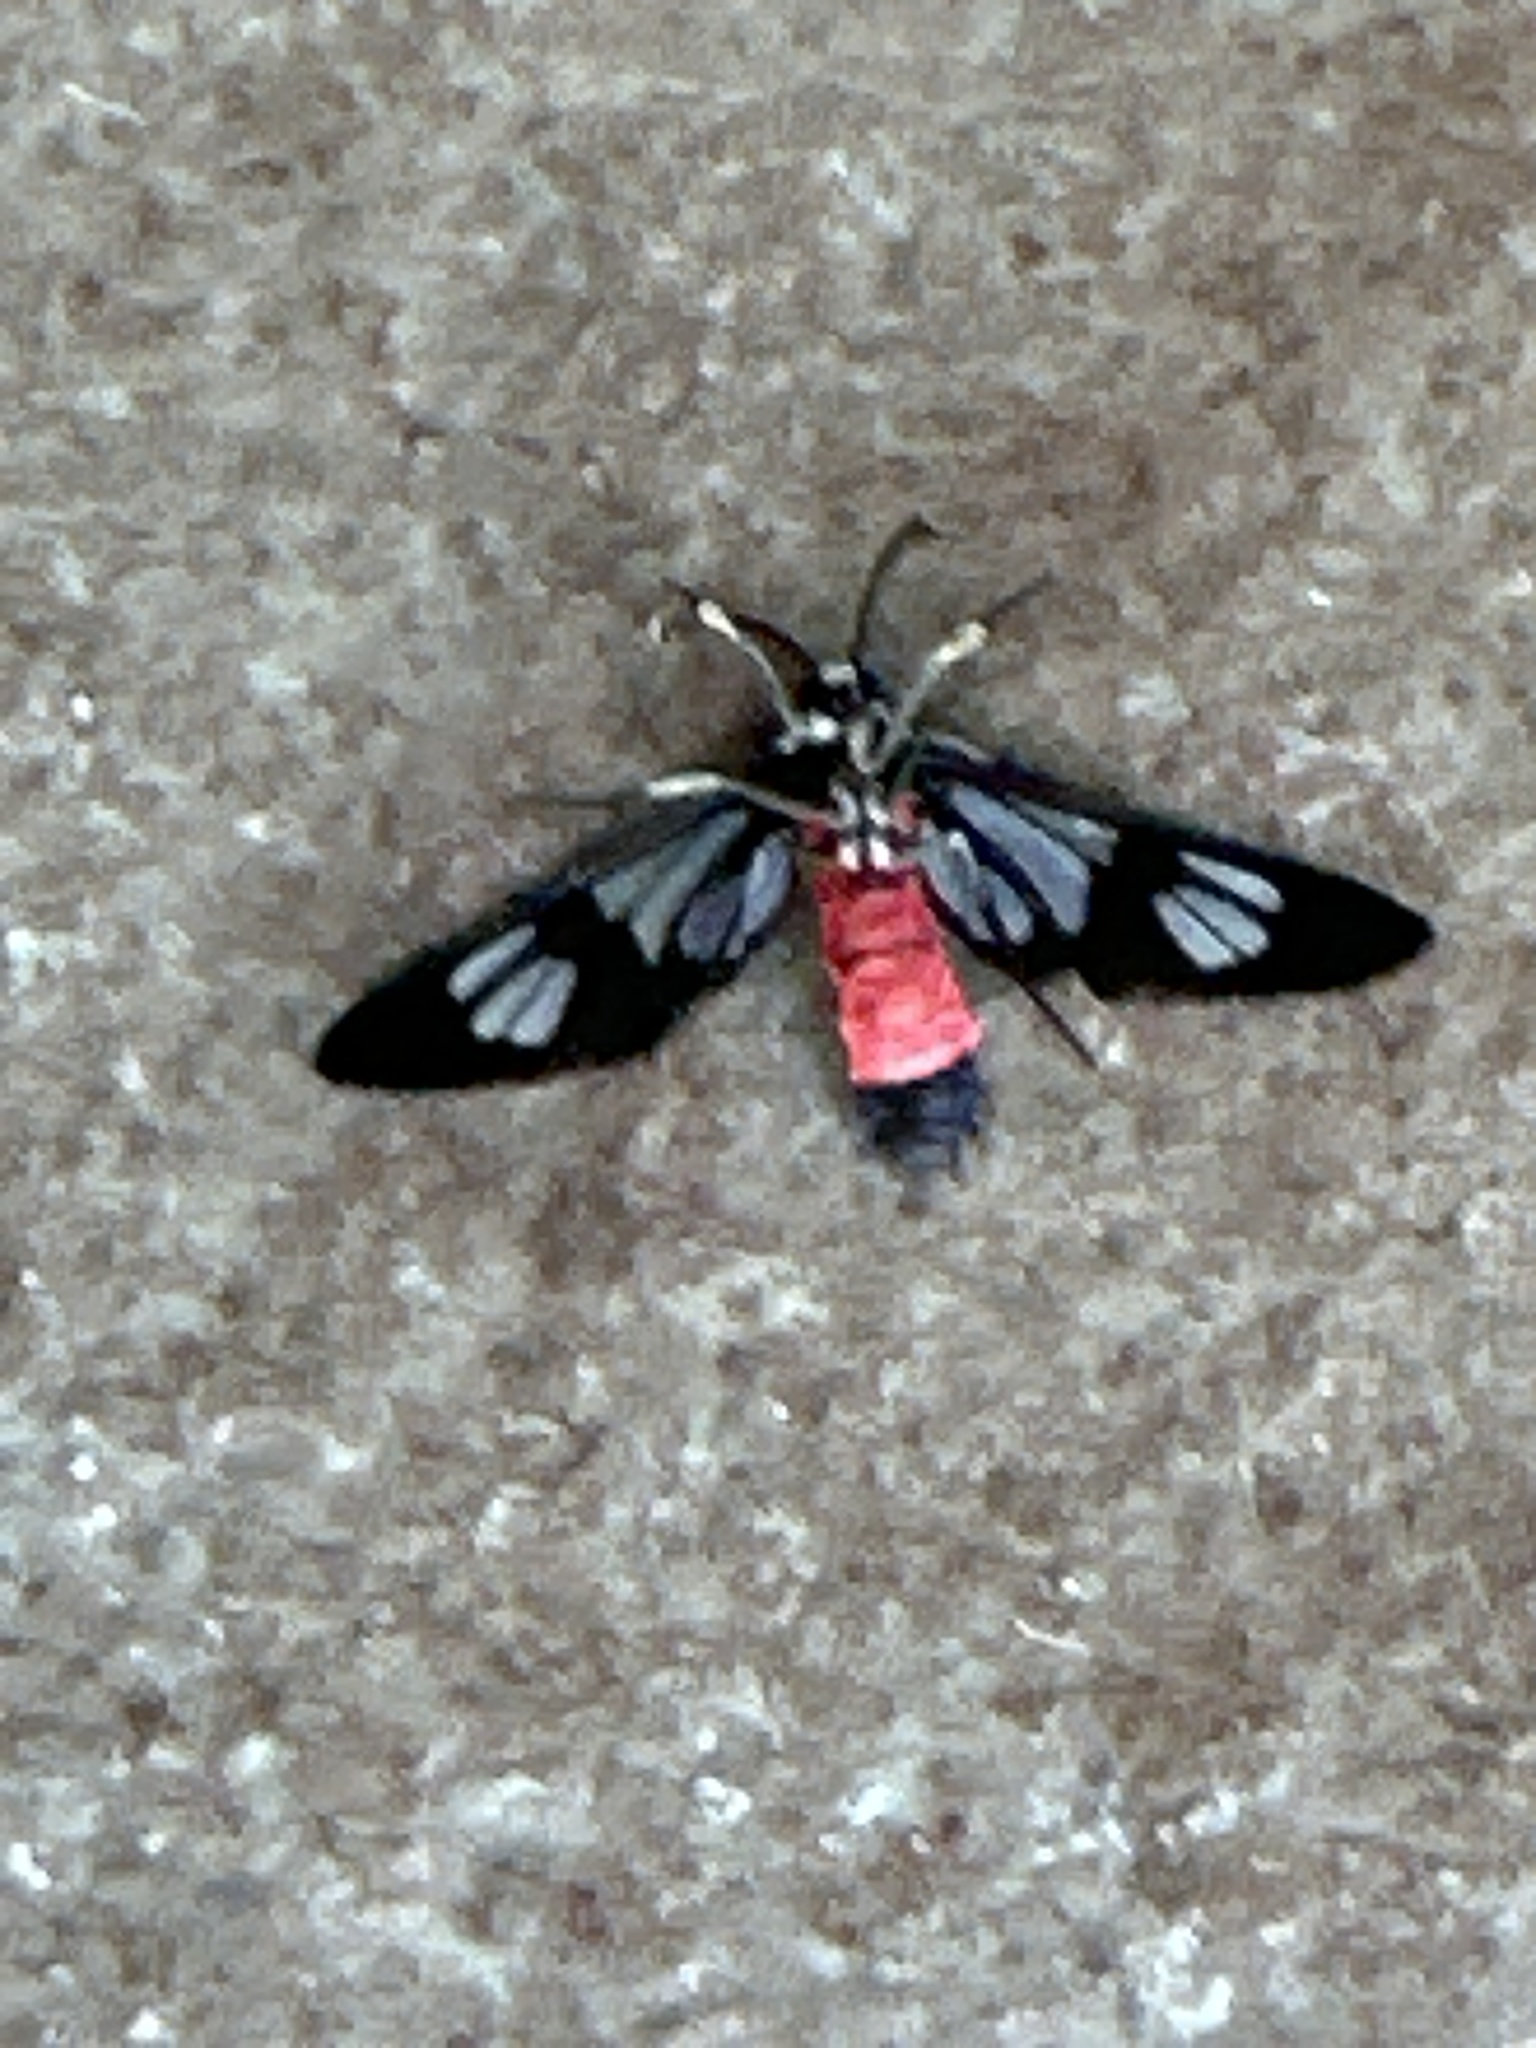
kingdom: Animalia
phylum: Arthropoda
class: Insecta
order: Lepidoptera
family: Erebidae
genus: Amata
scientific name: Amata fouqueti
